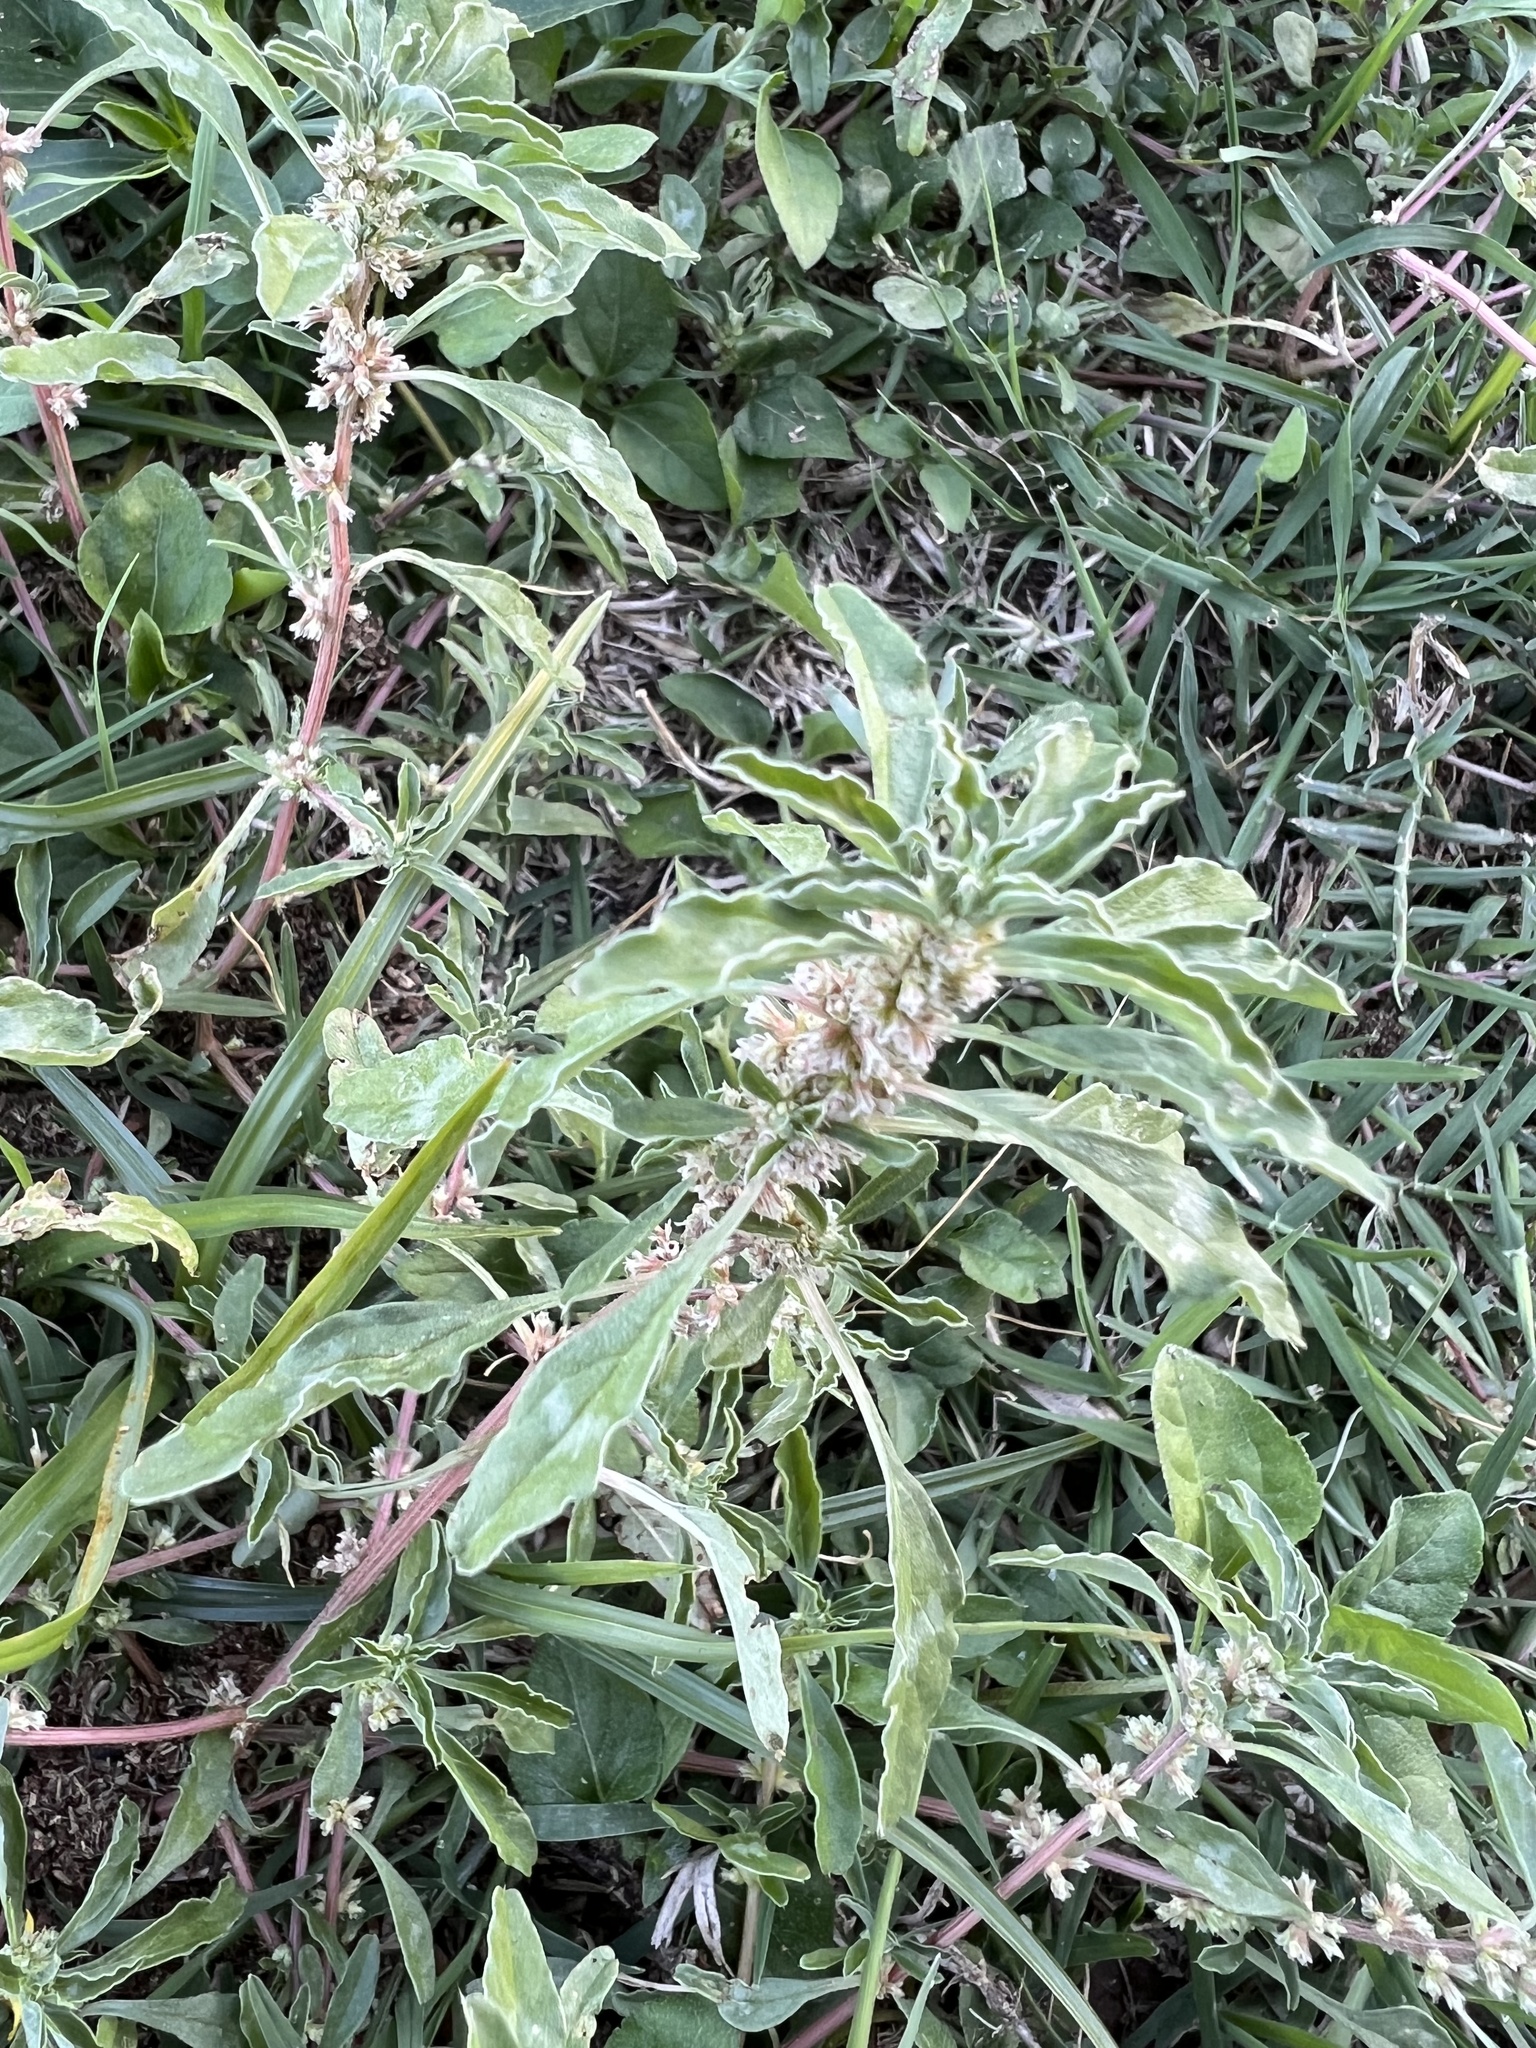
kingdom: Plantae
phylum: Tracheophyta
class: Magnoliopsida
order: Caryophyllales
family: Amaranthaceae
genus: Amaranthus
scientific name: Amaranthus polygonoides
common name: Tropical amaranth
